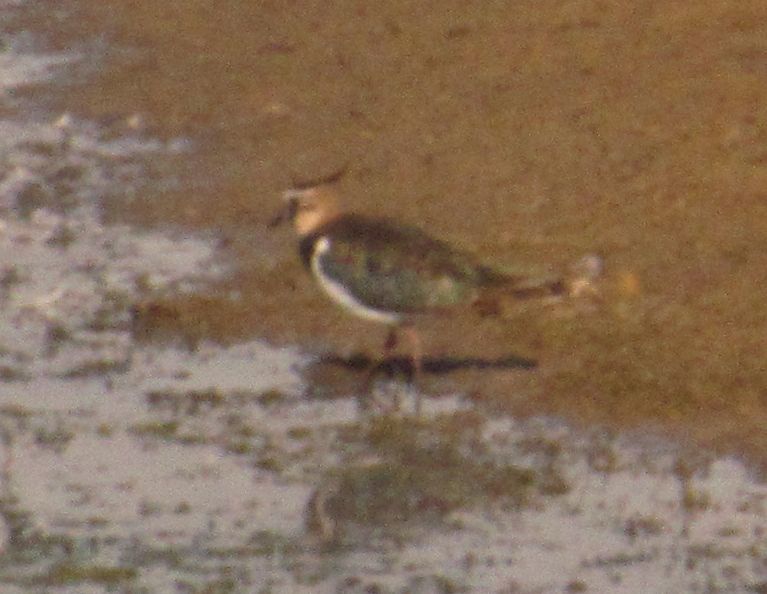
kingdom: Animalia
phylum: Chordata
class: Aves
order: Charadriiformes
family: Charadriidae
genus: Vanellus
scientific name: Vanellus vanellus
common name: Northern lapwing
